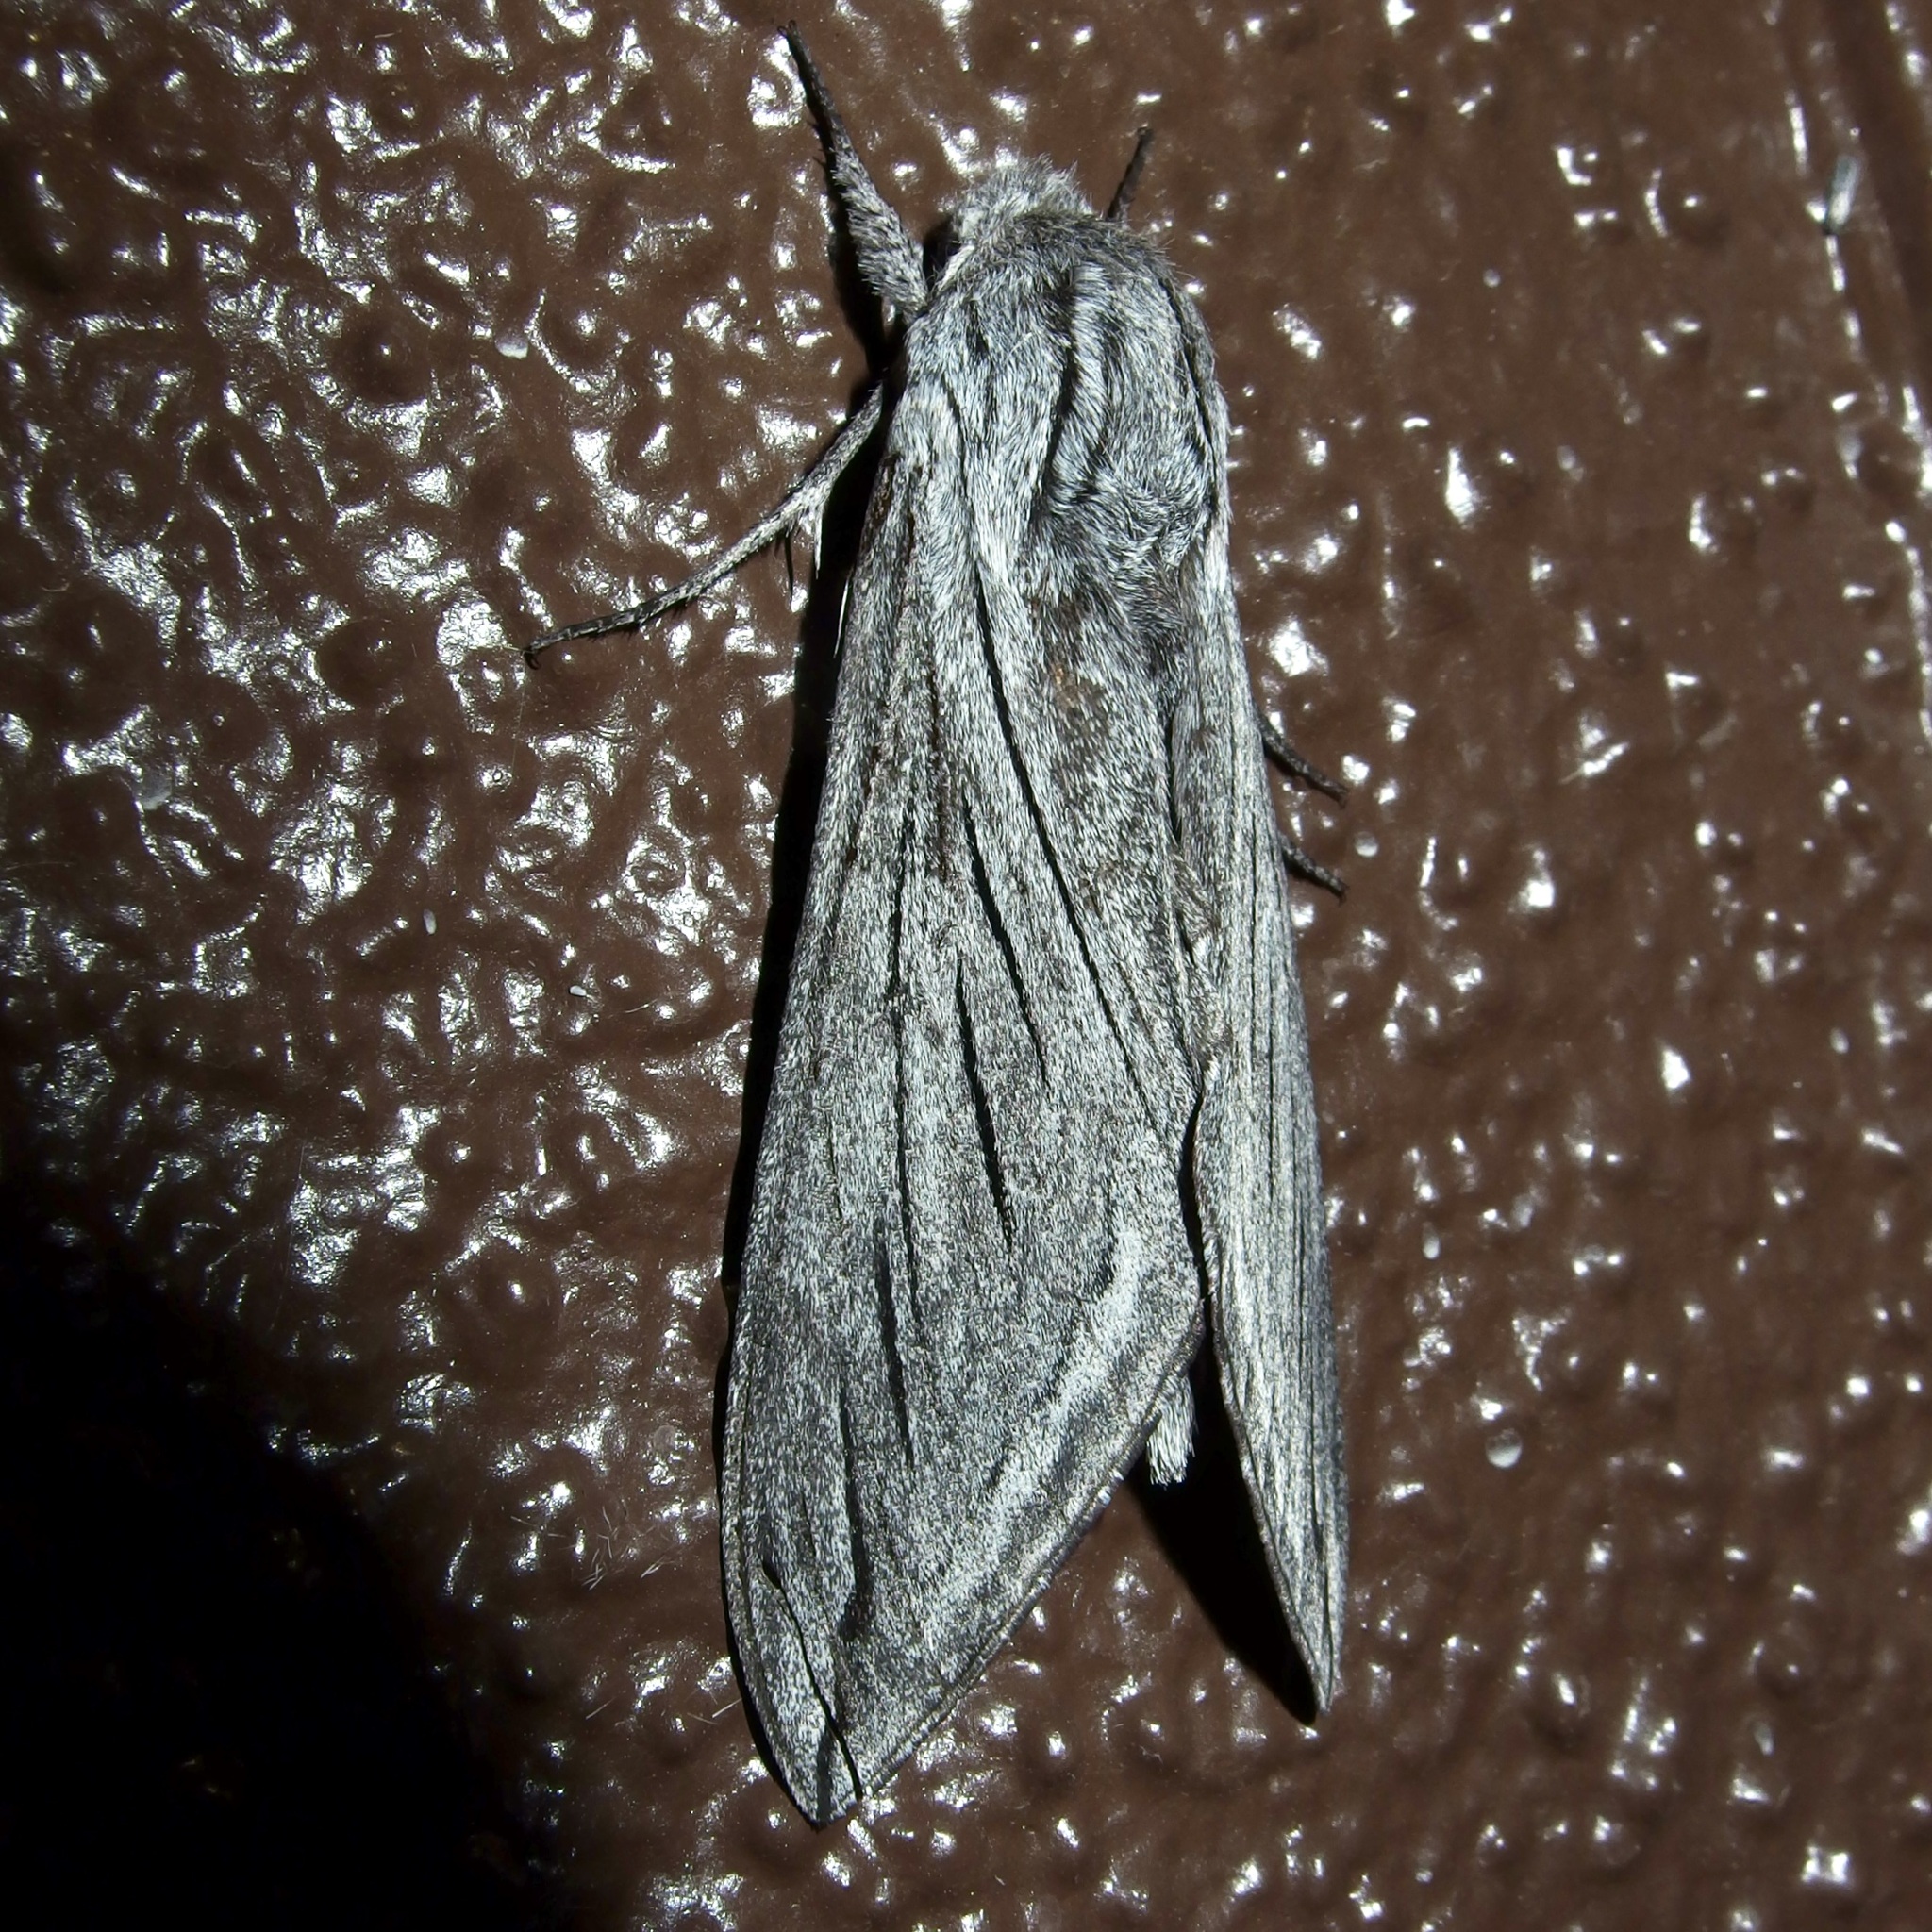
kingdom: Animalia
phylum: Arthropoda
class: Insecta
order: Lepidoptera
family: Sphingidae
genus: Sphinx
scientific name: Sphinx asellus
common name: Asella sphinx
